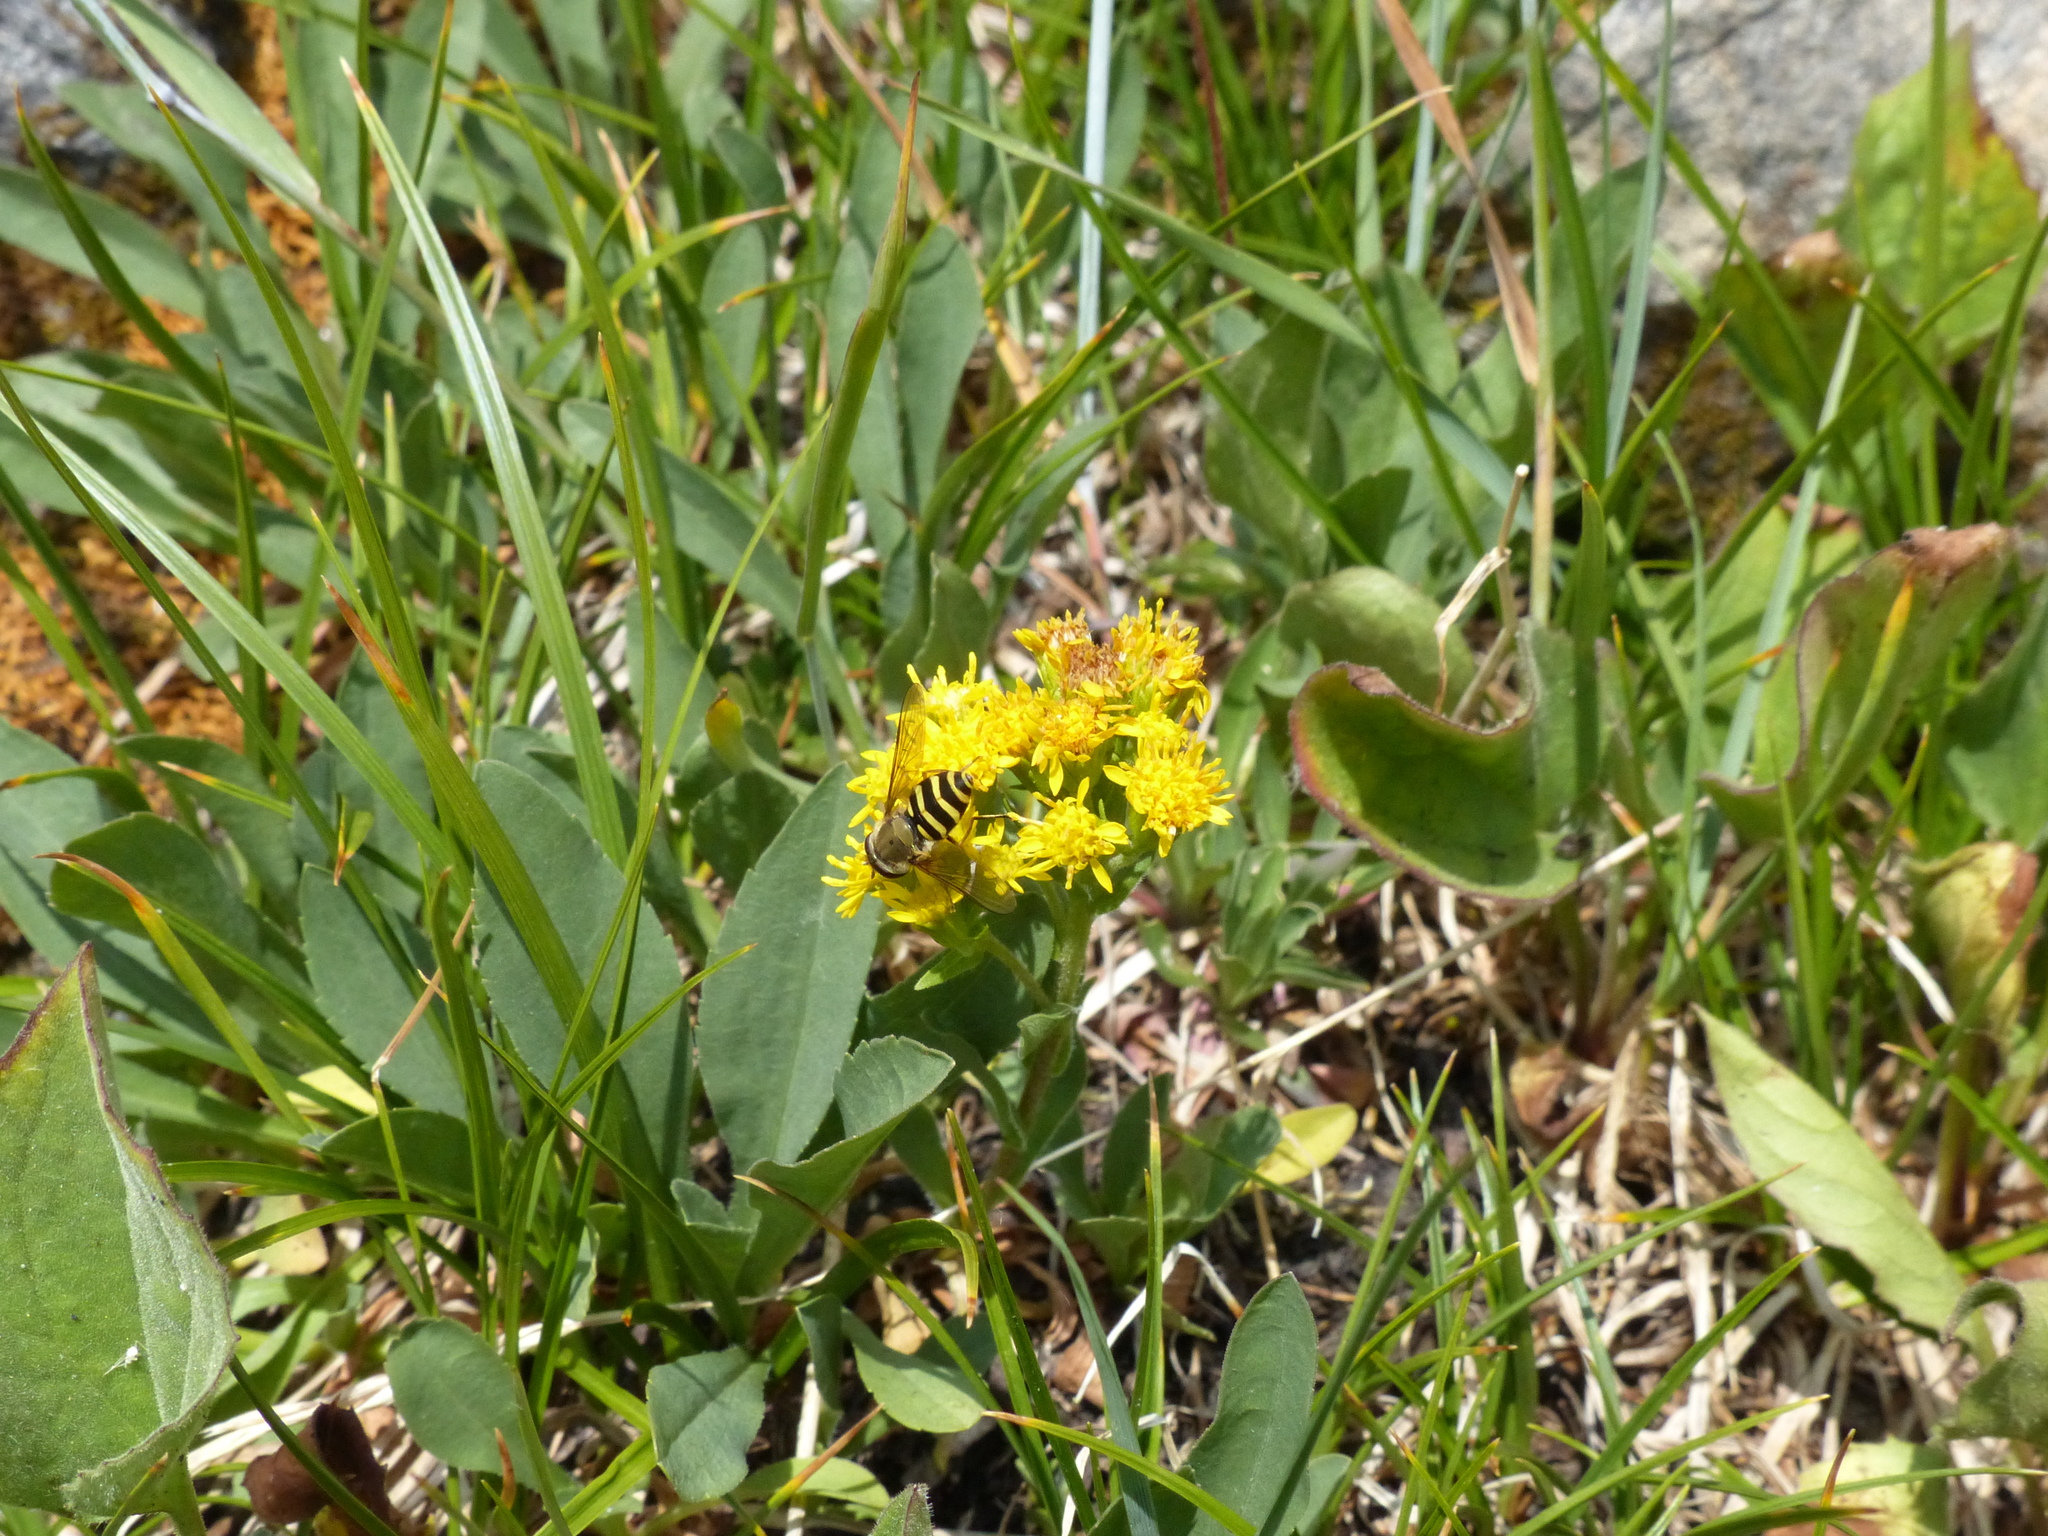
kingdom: Animalia
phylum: Arthropoda
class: Insecta
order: Diptera
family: Syrphidae
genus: Syrphus
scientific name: Syrphus
